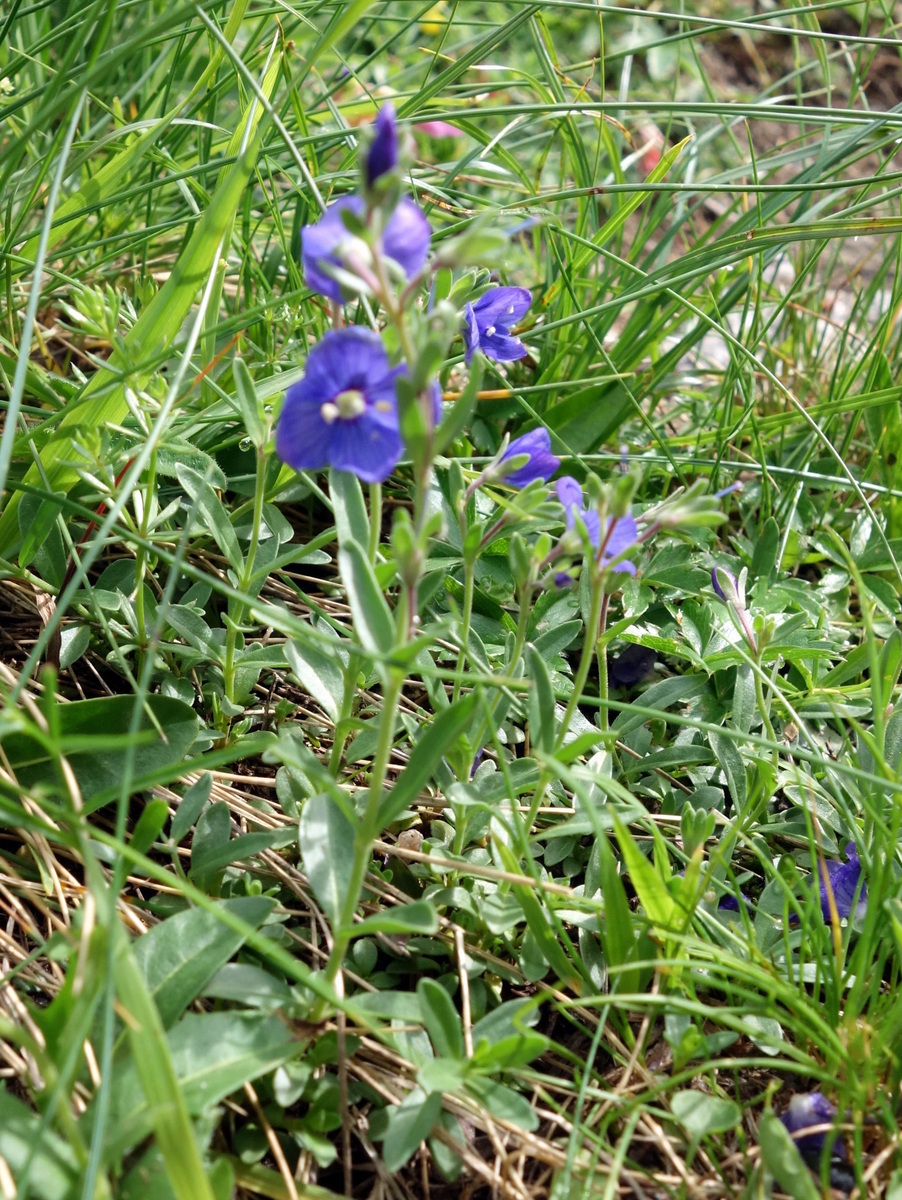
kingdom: Plantae
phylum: Tracheophyta
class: Magnoliopsida
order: Lamiales
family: Plantaginaceae
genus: Veronica
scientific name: Veronica fruticans
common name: Rock speedwell
